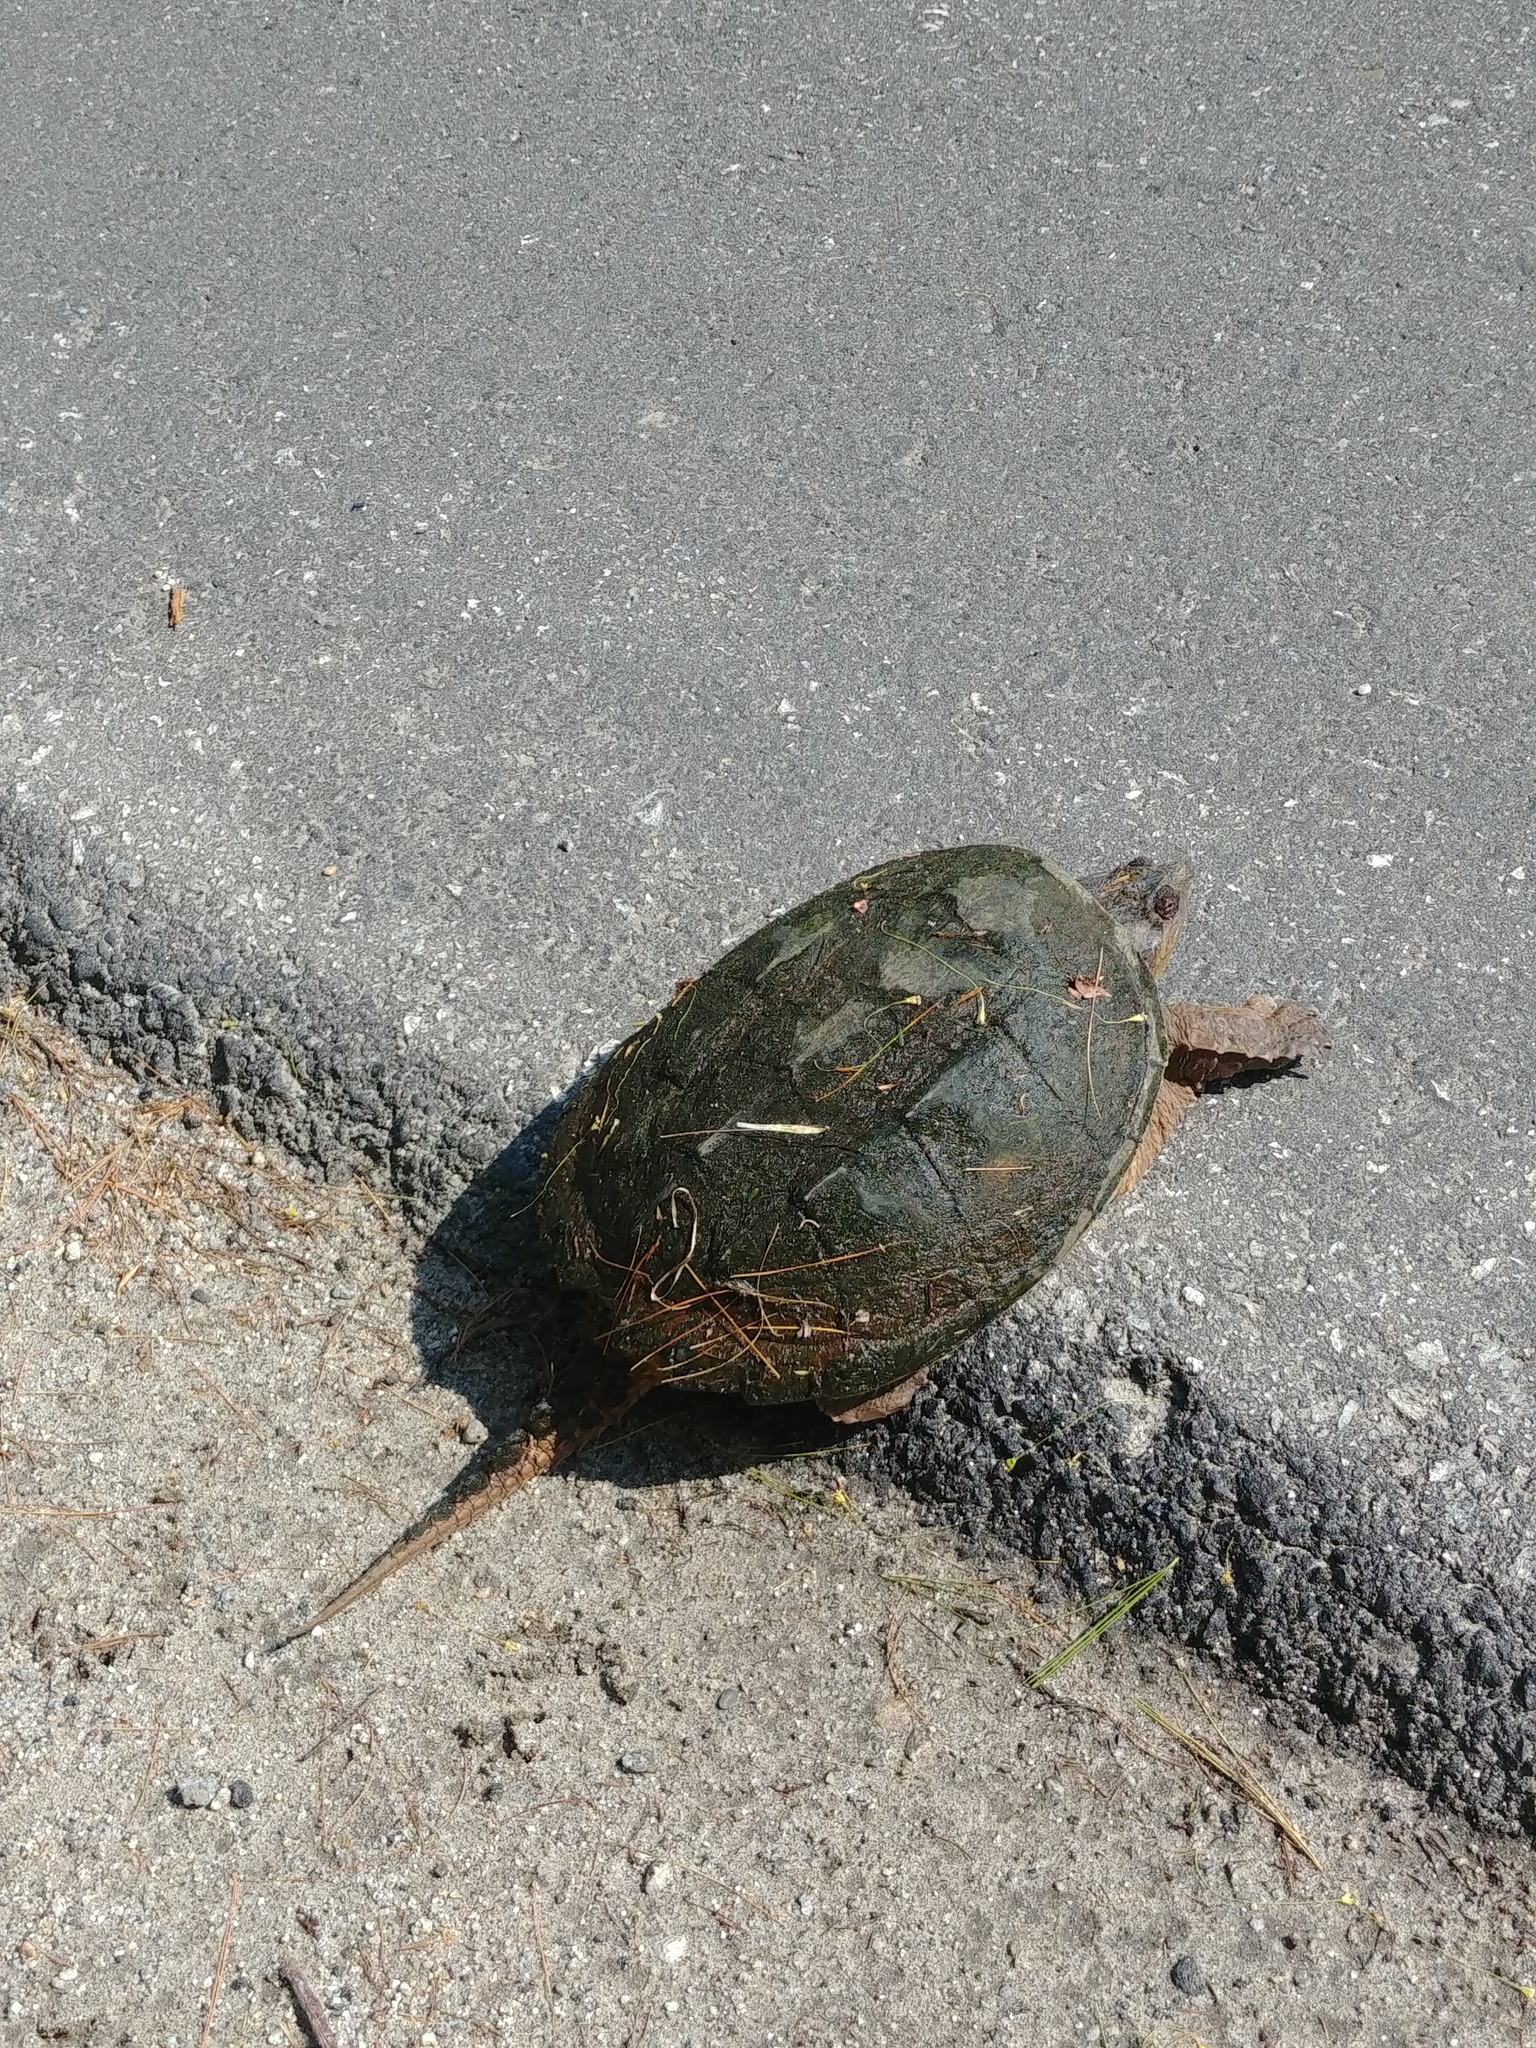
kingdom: Animalia
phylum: Chordata
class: Testudines
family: Chelydridae
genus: Chelydra
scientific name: Chelydra serpentina
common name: Common snapping turtle
